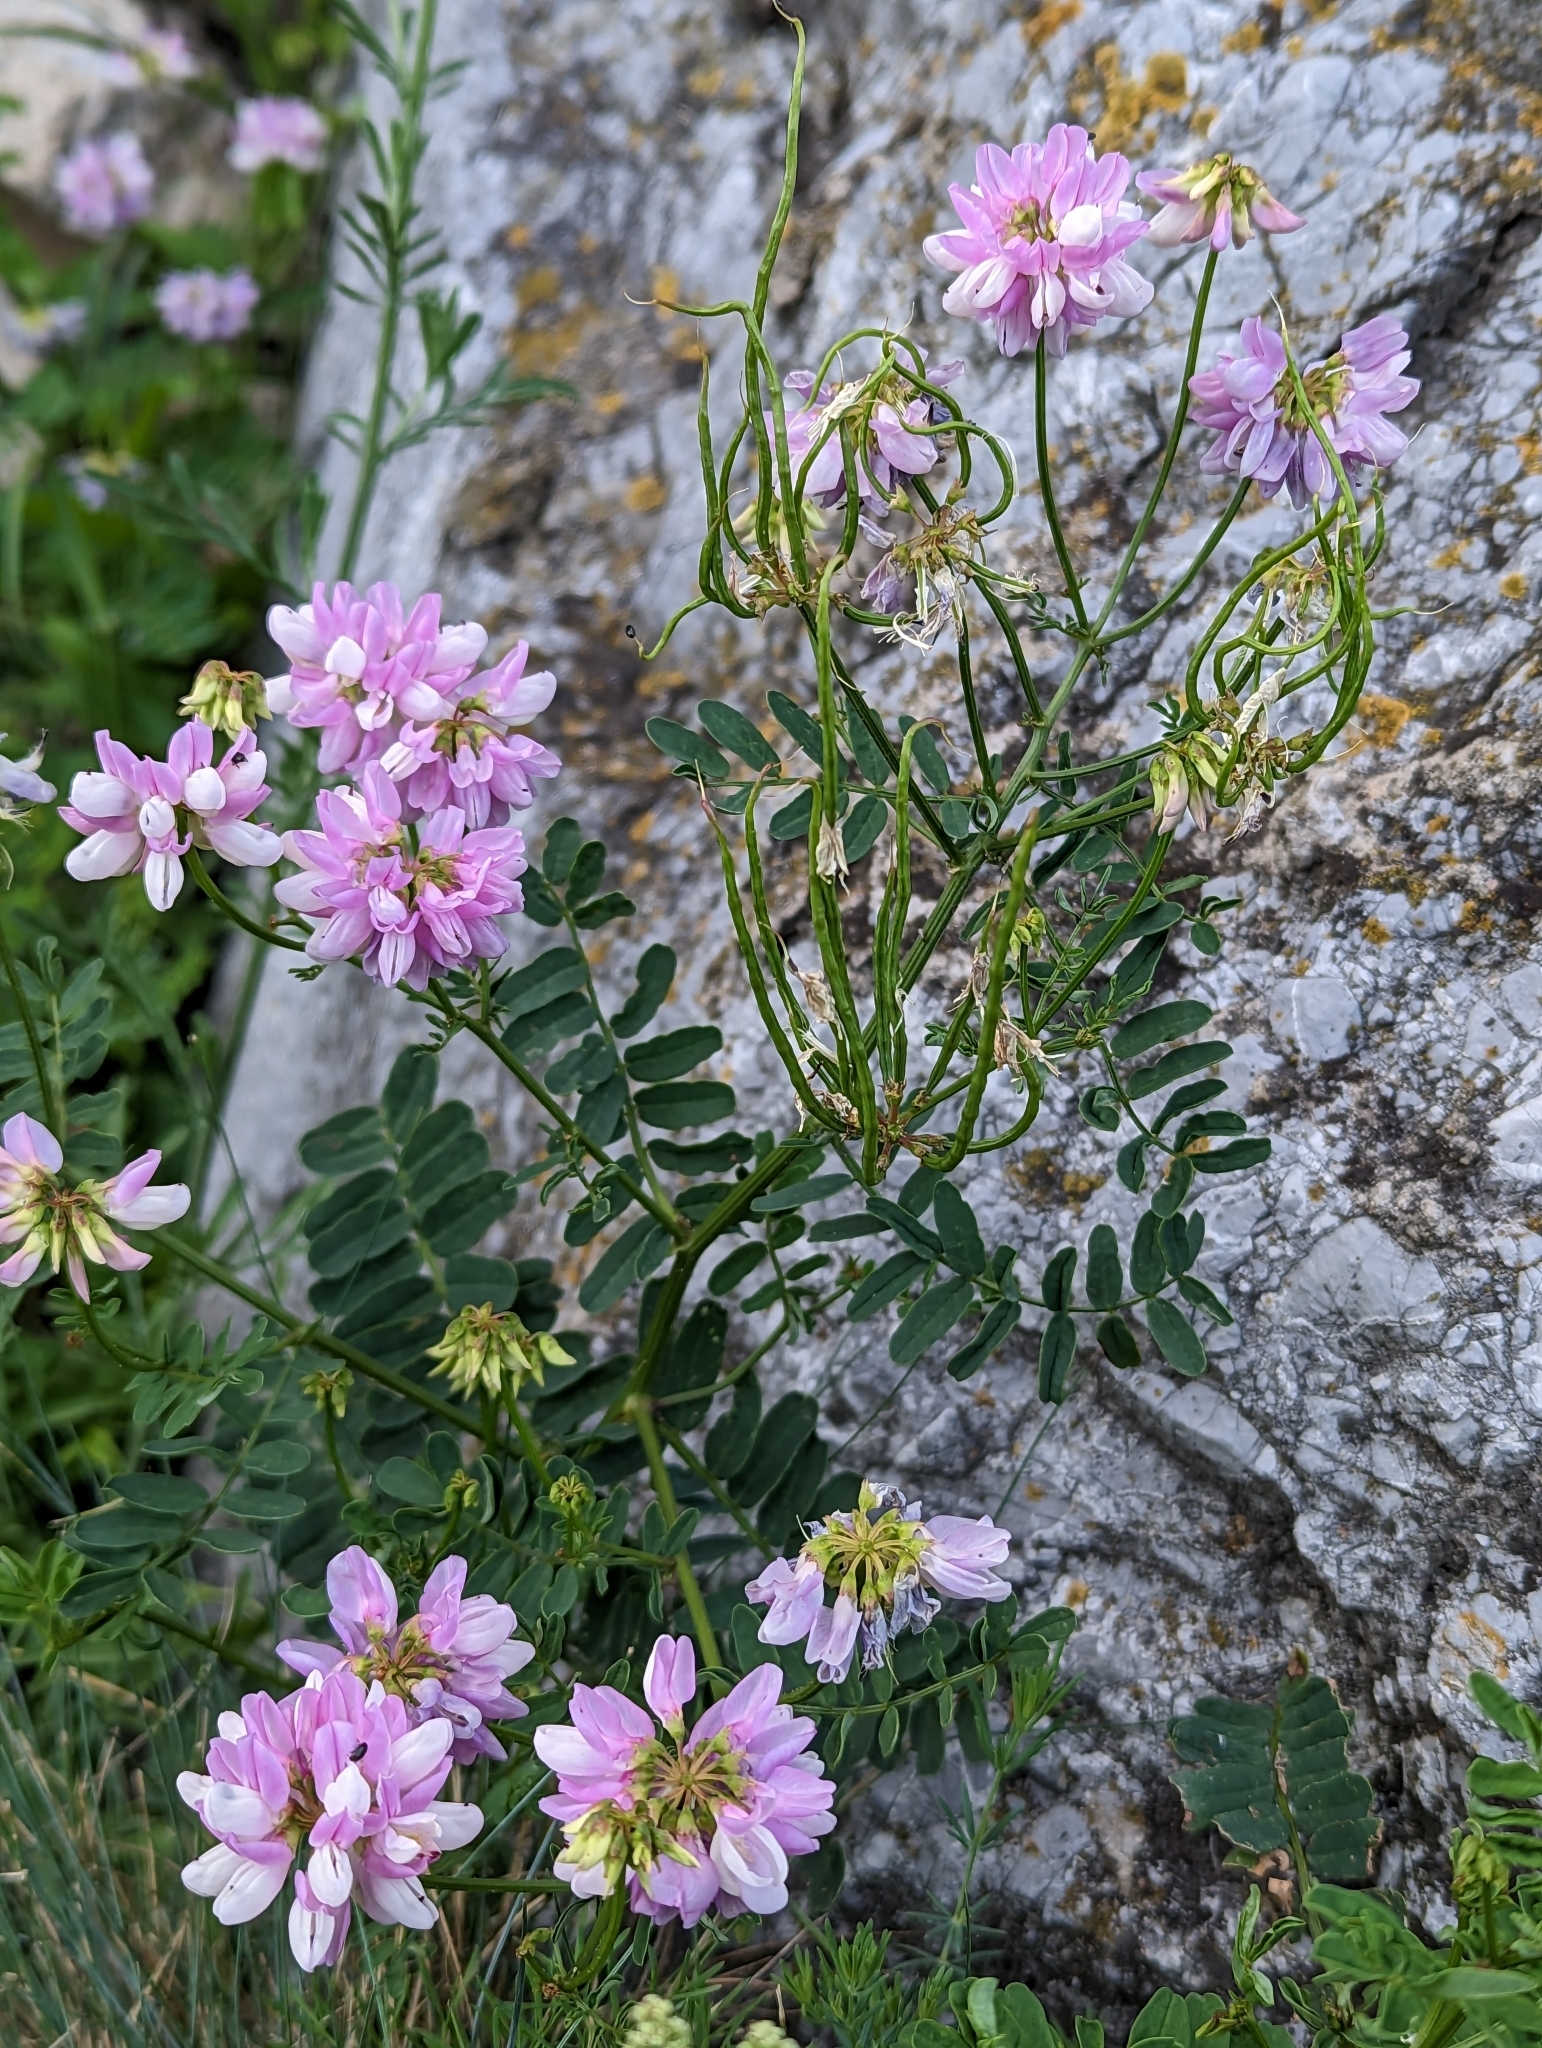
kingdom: Plantae
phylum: Tracheophyta
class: Magnoliopsida
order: Fabales
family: Fabaceae
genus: Coronilla
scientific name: Coronilla varia
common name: Crownvetch
